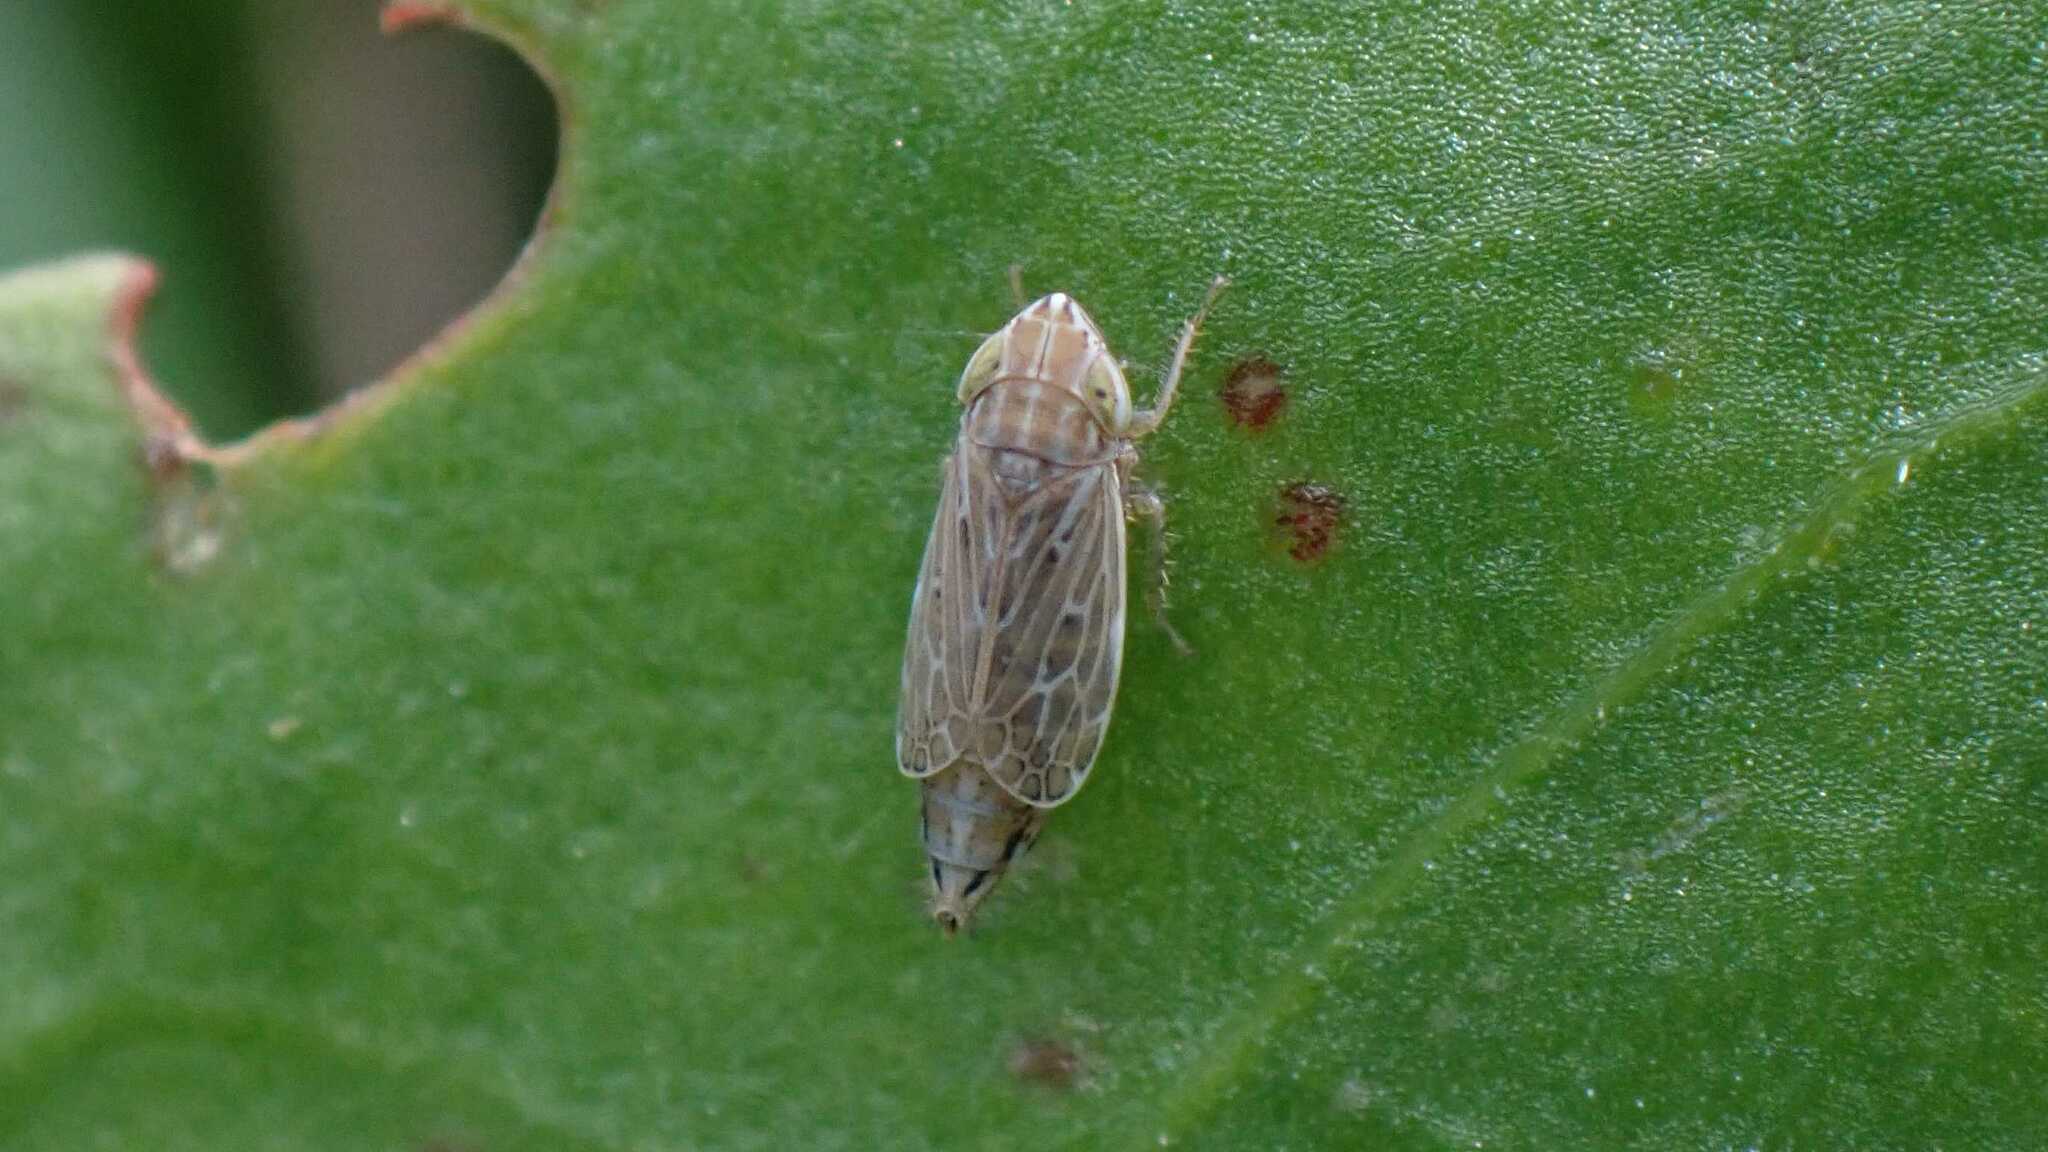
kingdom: Animalia
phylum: Arthropoda
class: Insecta
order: Hemiptera
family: Cicadellidae
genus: Turrutus
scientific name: Turrutus socialis
